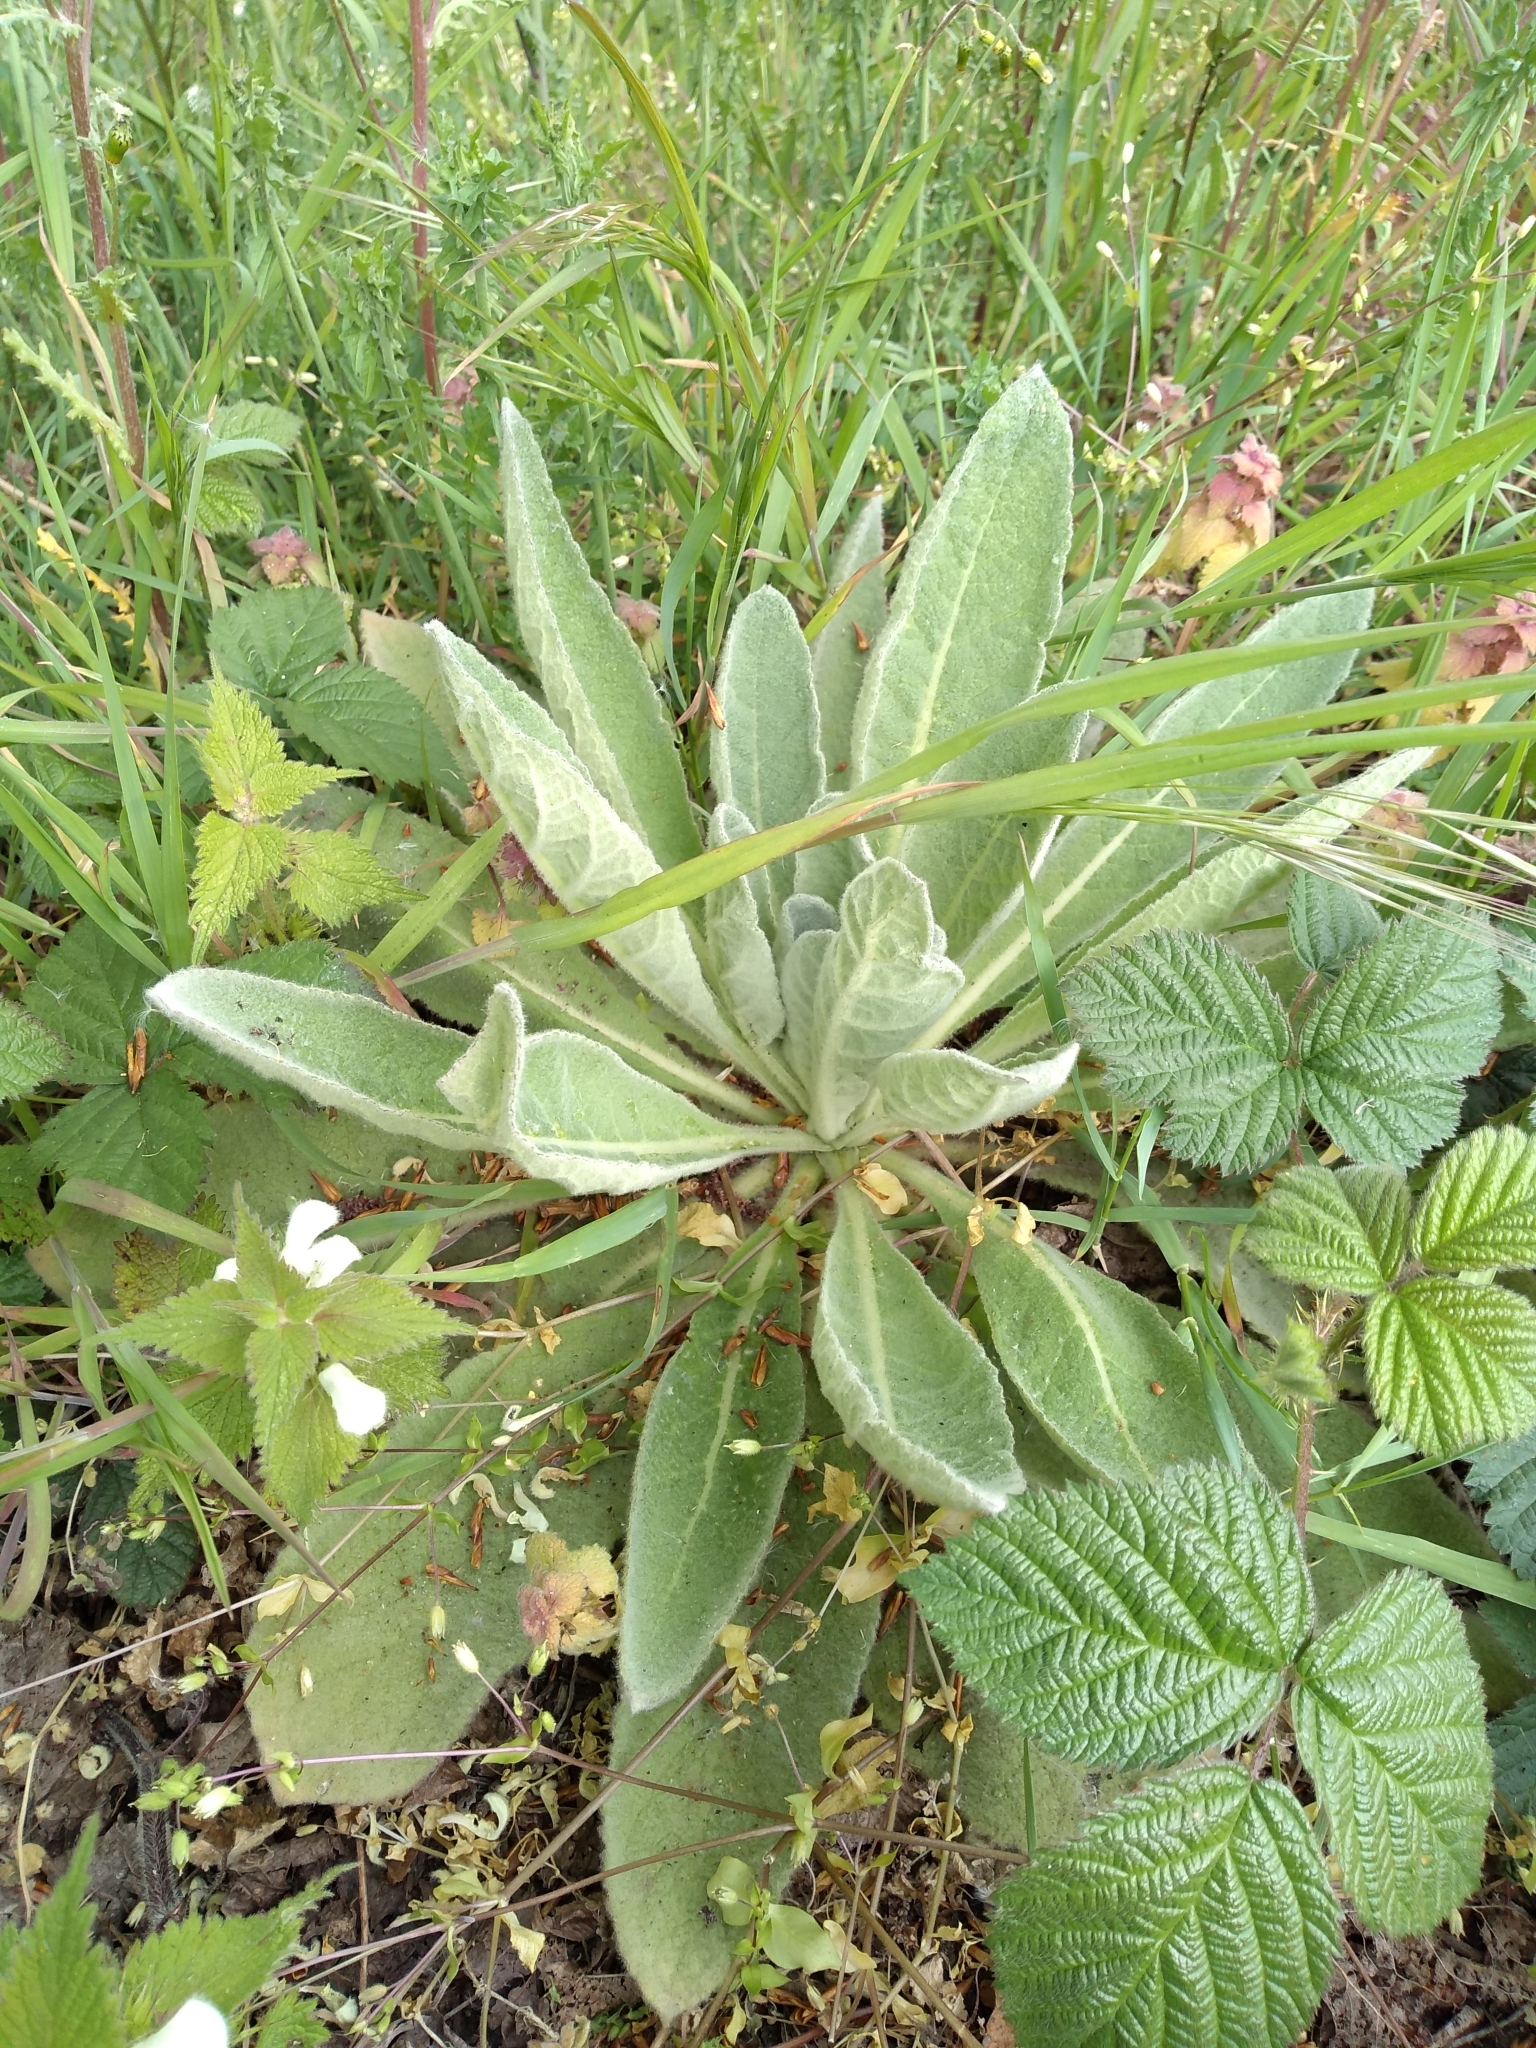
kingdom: Plantae
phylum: Tracheophyta
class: Magnoliopsida
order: Lamiales
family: Scrophulariaceae
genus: Verbascum
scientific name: Verbascum thapsus
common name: Common mullein
